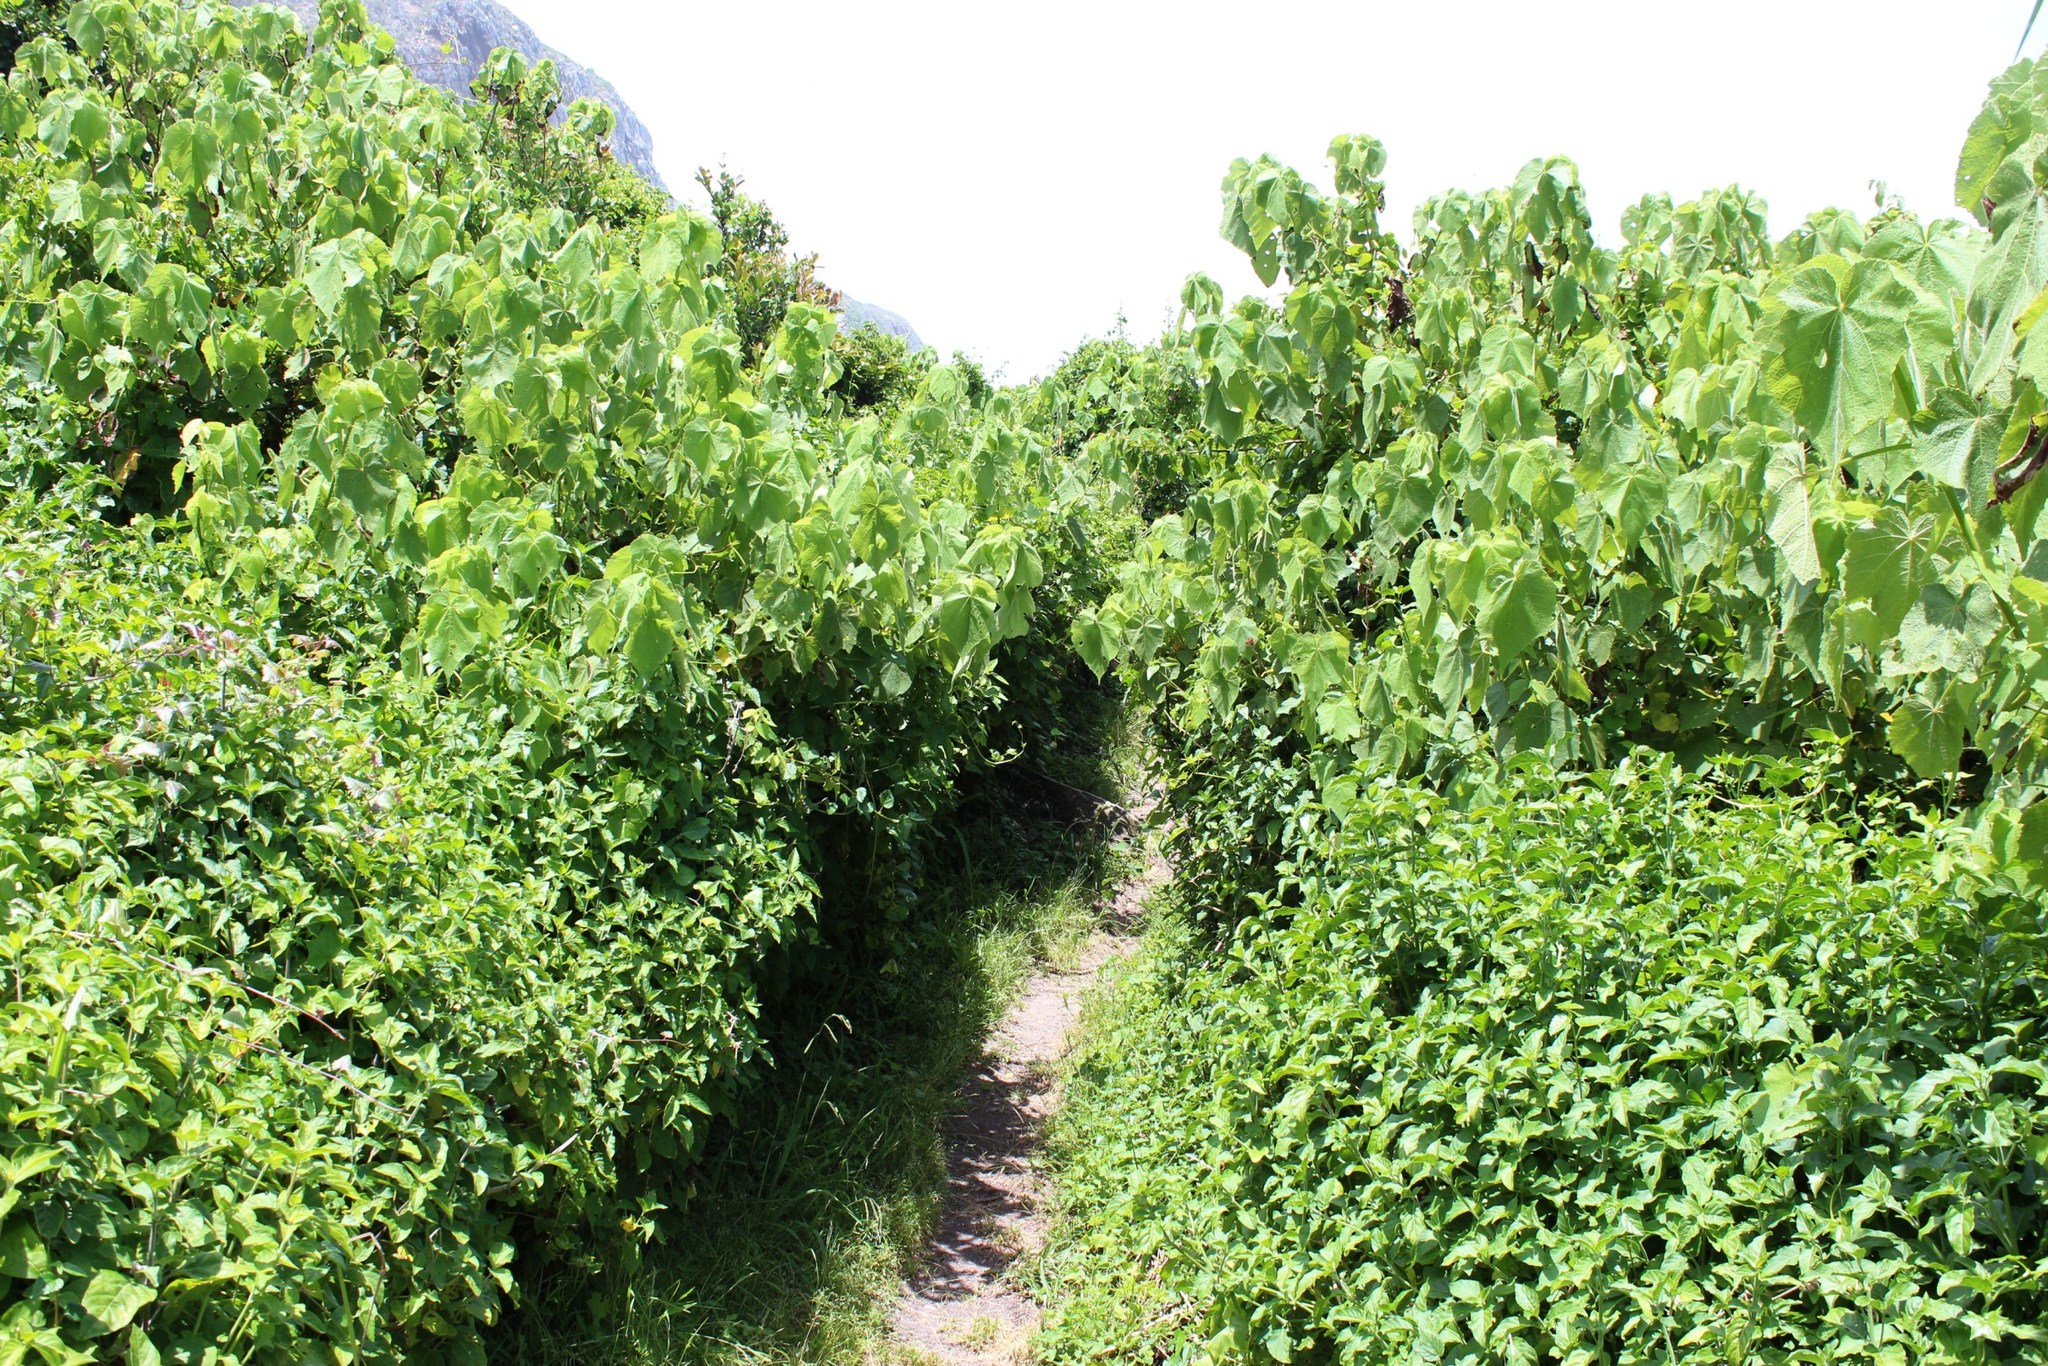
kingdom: Plantae
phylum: Tracheophyta
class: Magnoliopsida
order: Malvales
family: Malvaceae
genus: Sparrmannia
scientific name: Sparrmannia africana
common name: African-hemp
